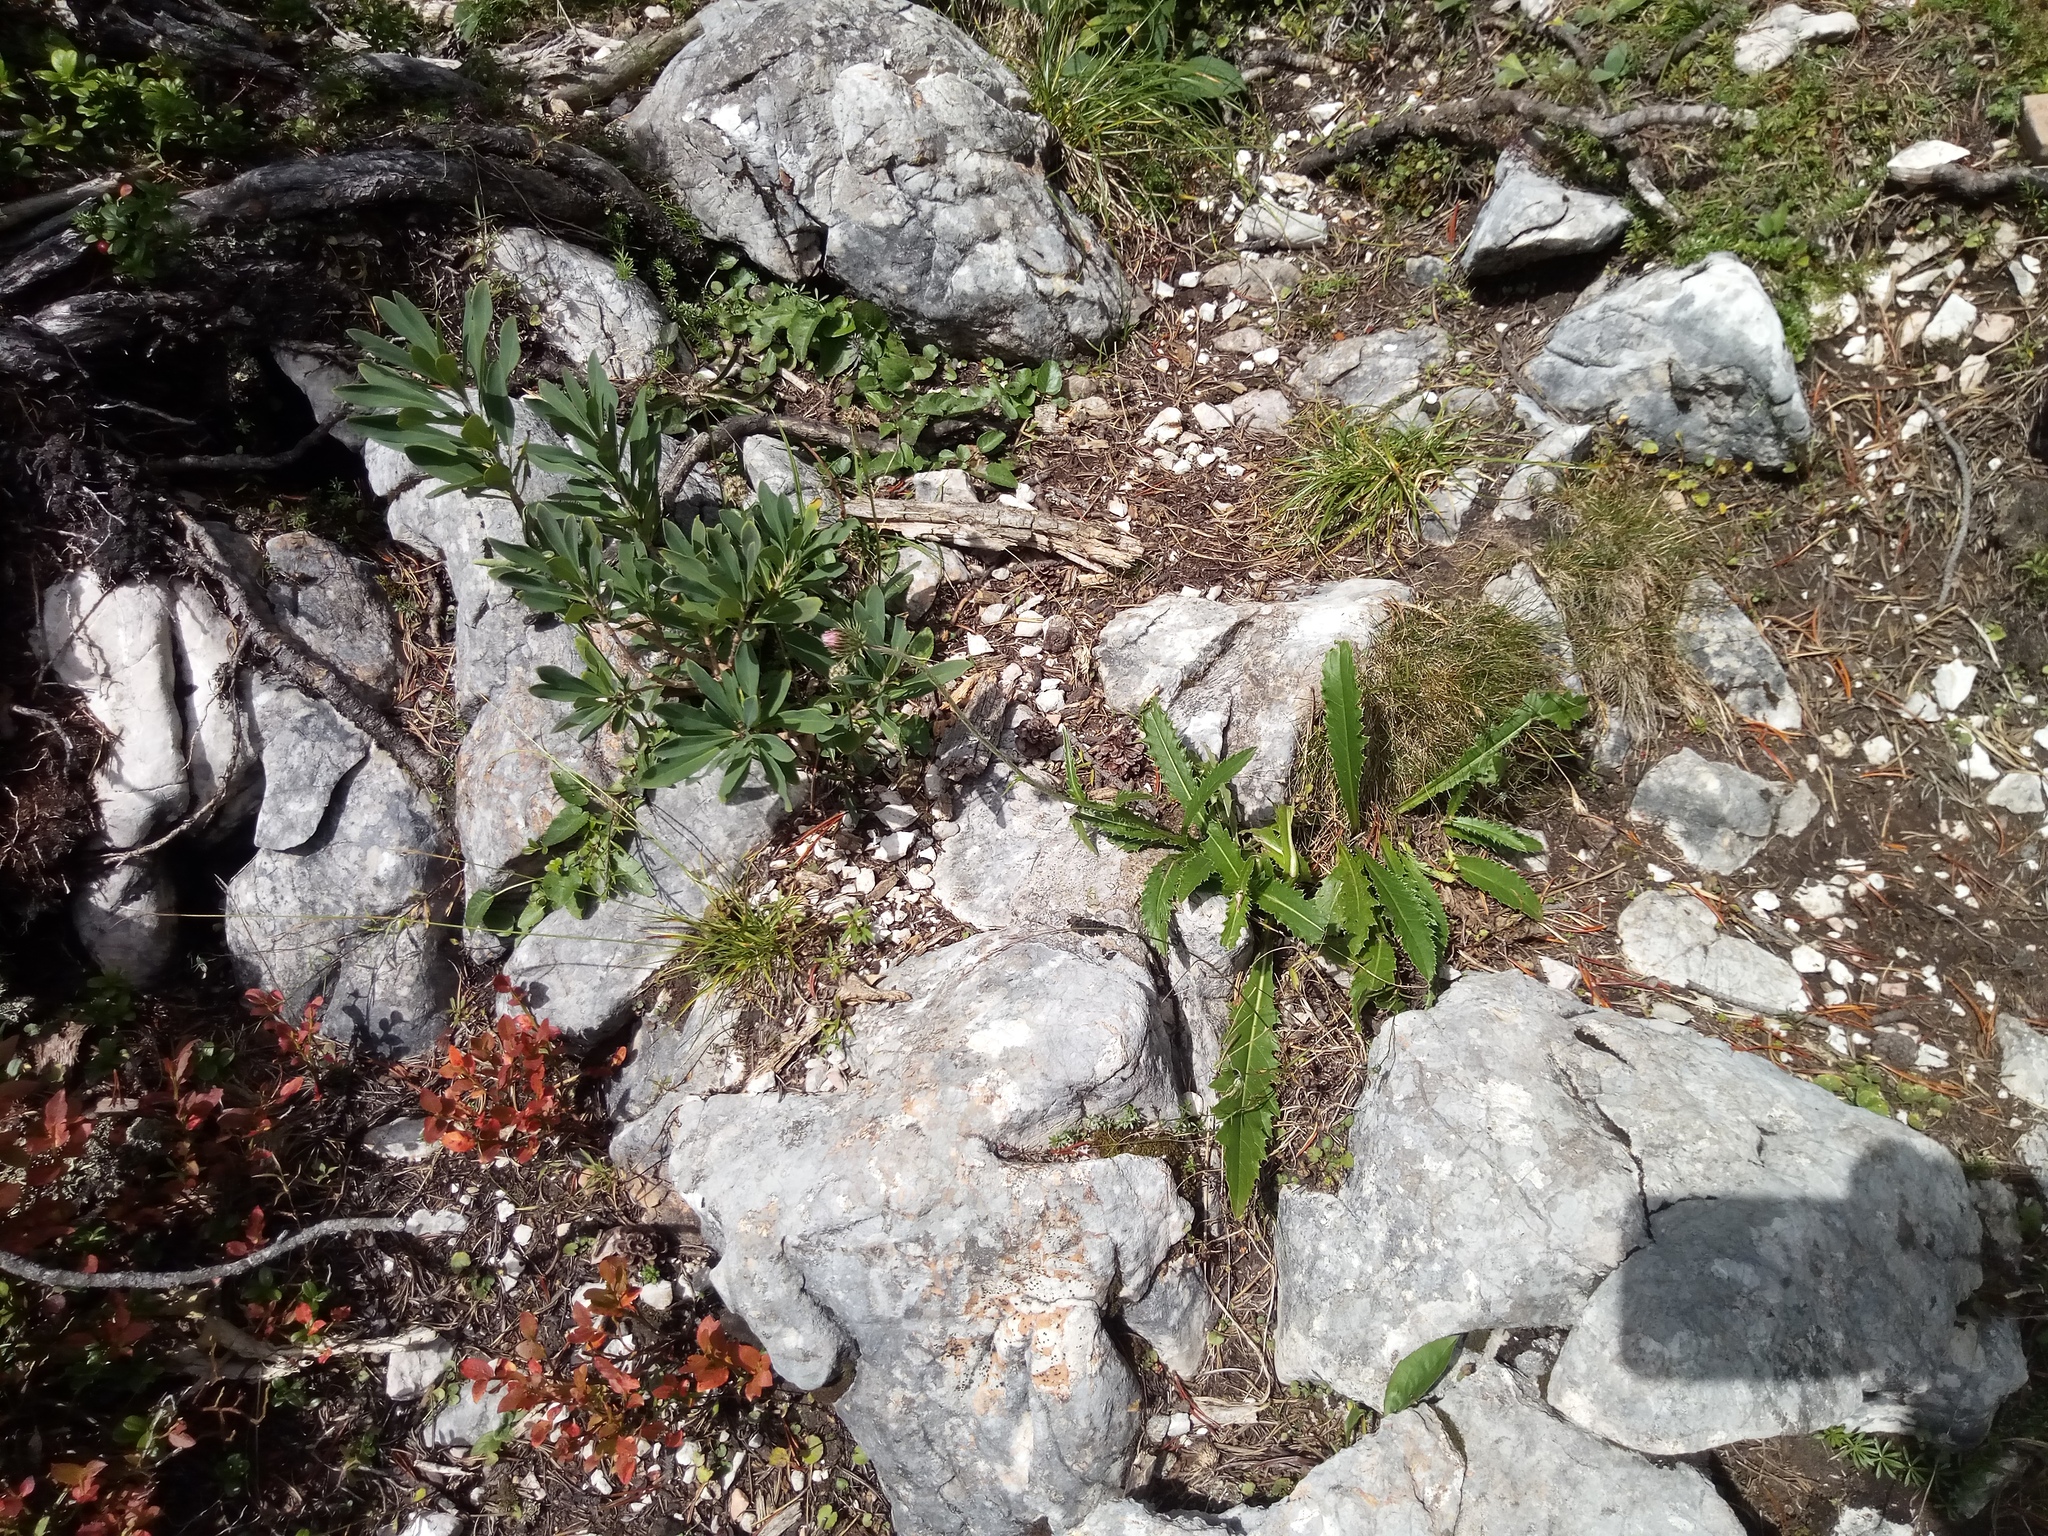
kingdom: Plantae
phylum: Tracheophyta
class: Magnoliopsida
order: Asterales
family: Asteraceae
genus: Carduus
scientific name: Carduus defloratus
